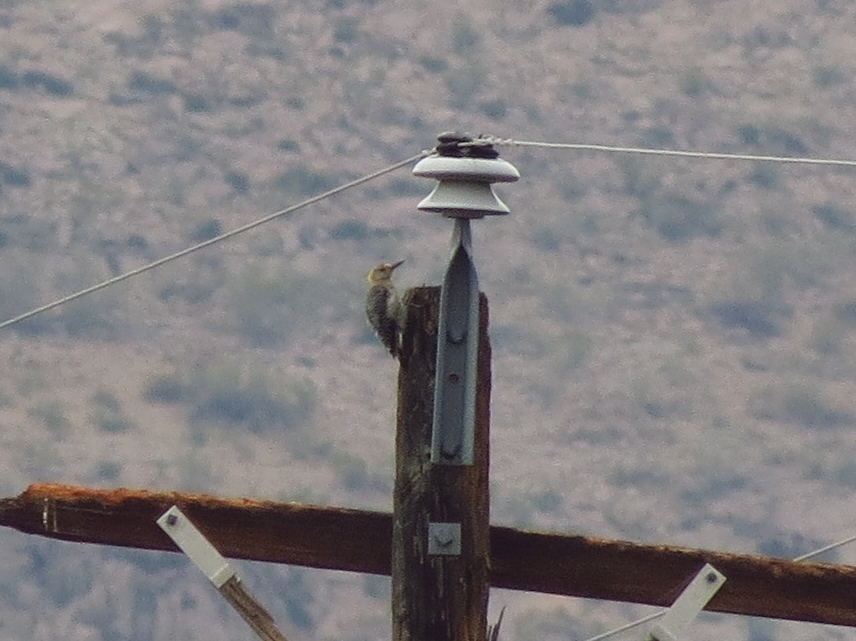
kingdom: Animalia
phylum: Chordata
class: Aves
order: Piciformes
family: Picidae
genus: Melanerpes
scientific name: Melanerpes aurifrons
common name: Golden-fronted woodpecker
